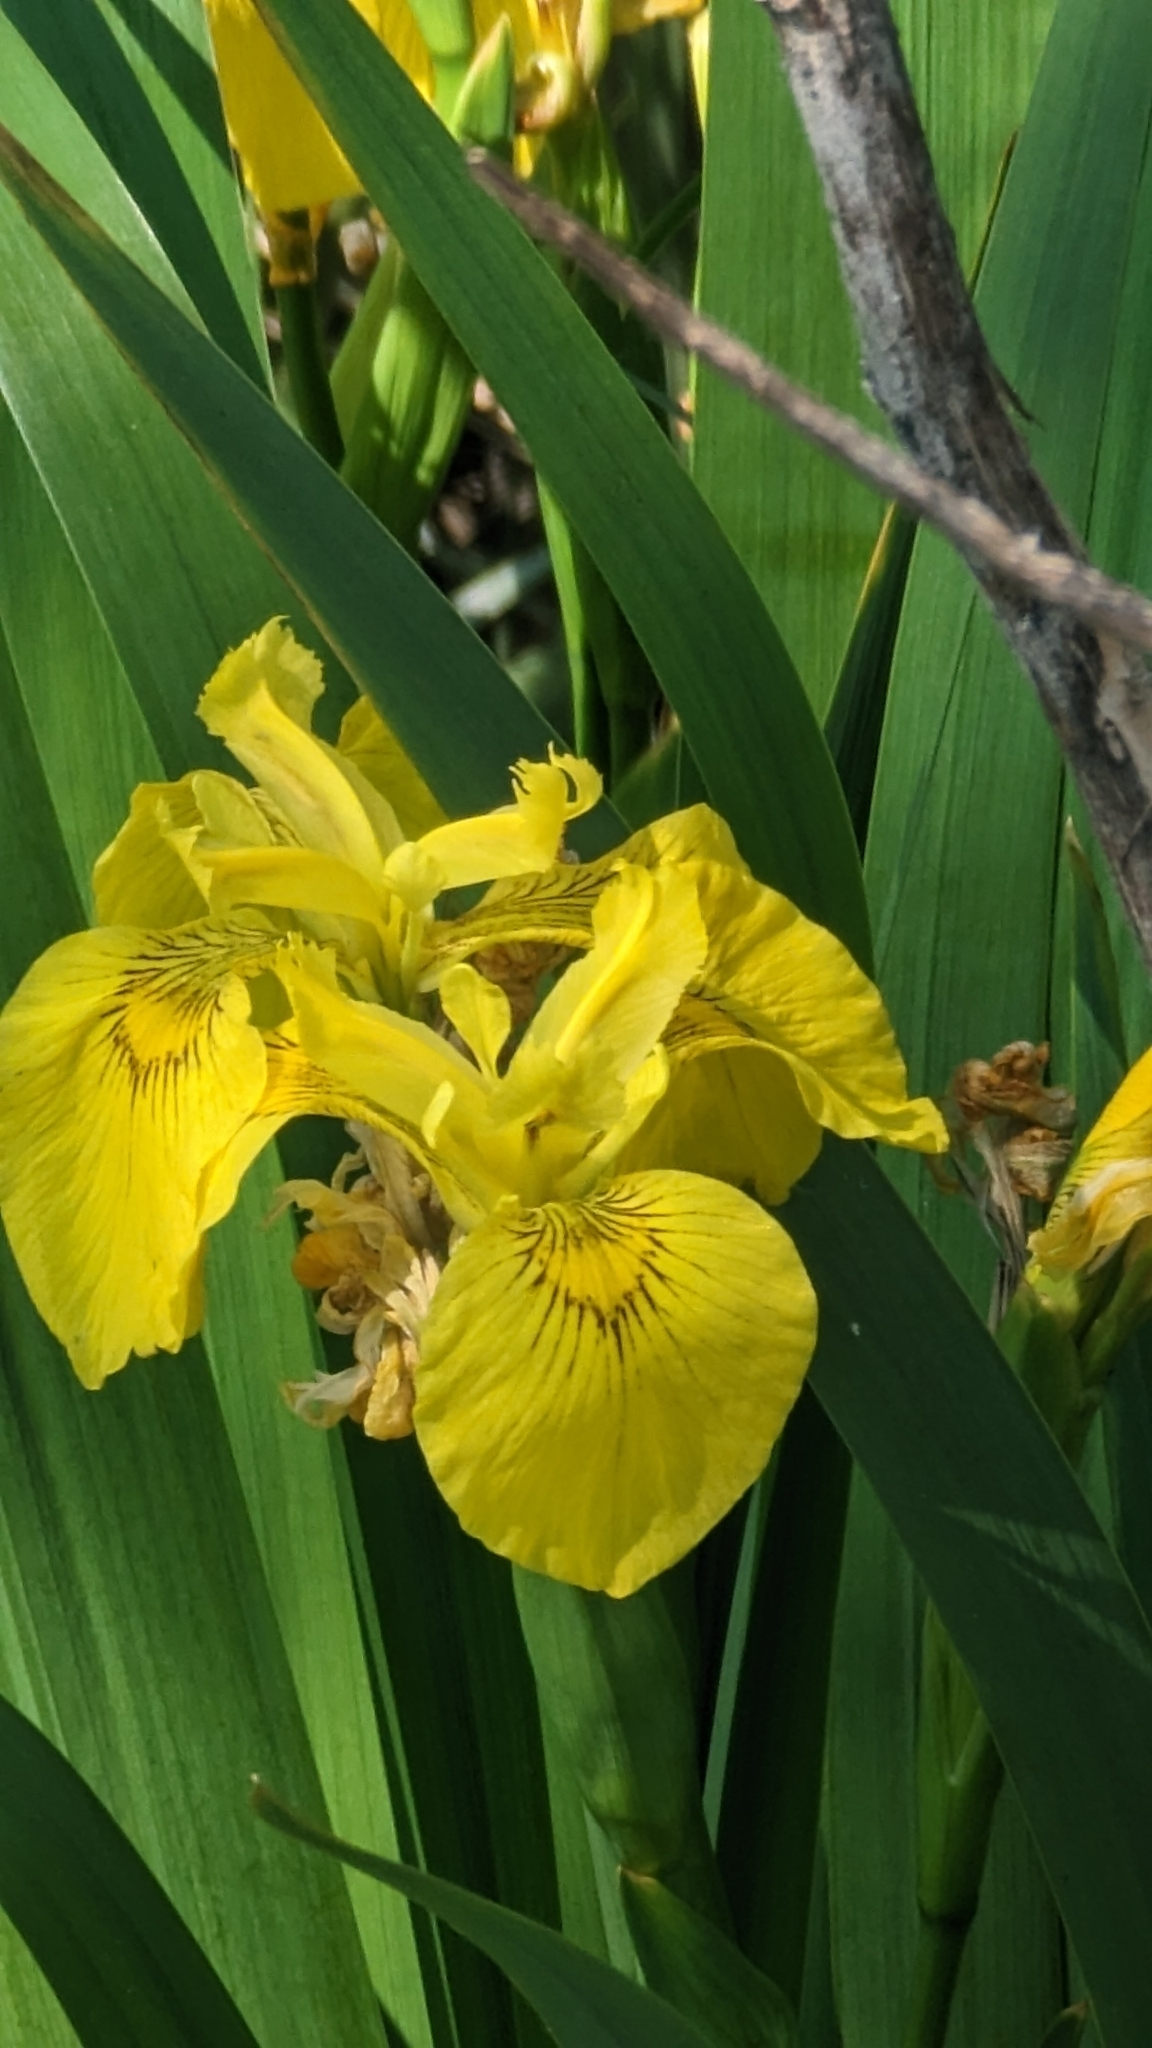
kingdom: Plantae
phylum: Tracheophyta
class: Liliopsida
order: Asparagales
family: Iridaceae
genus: Iris
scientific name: Iris pseudacorus
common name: Yellow flag
